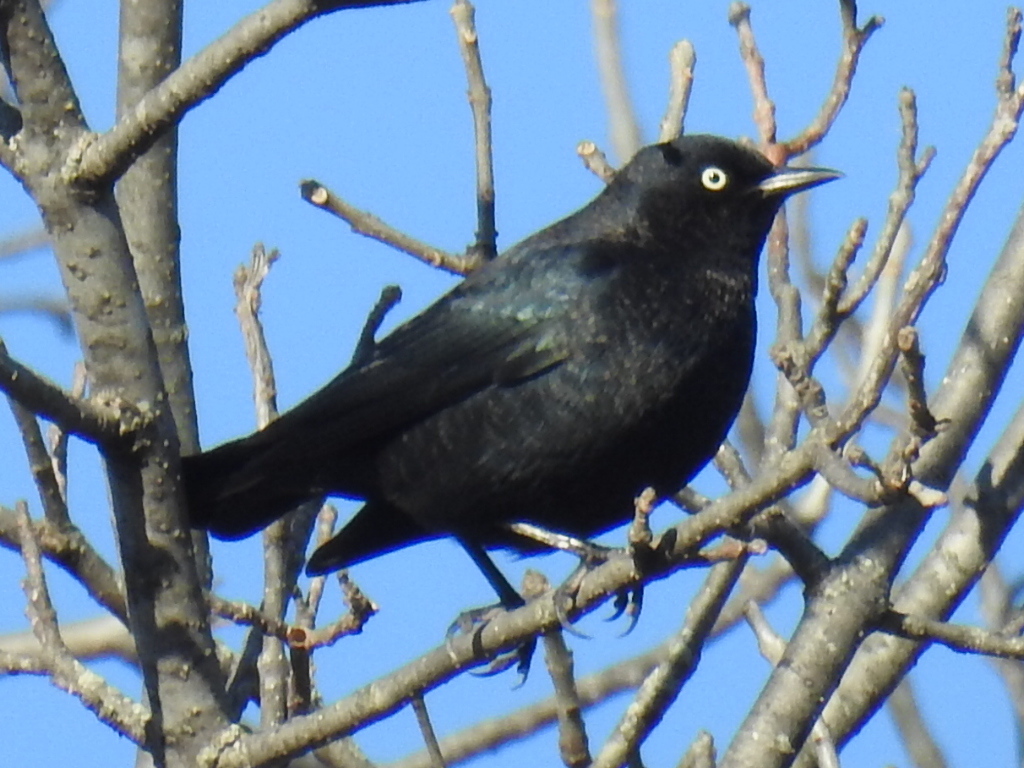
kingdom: Animalia
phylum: Chordata
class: Aves
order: Passeriformes
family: Icteridae
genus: Euphagus
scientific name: Euphagus carolinus
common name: Rusty blackbird
